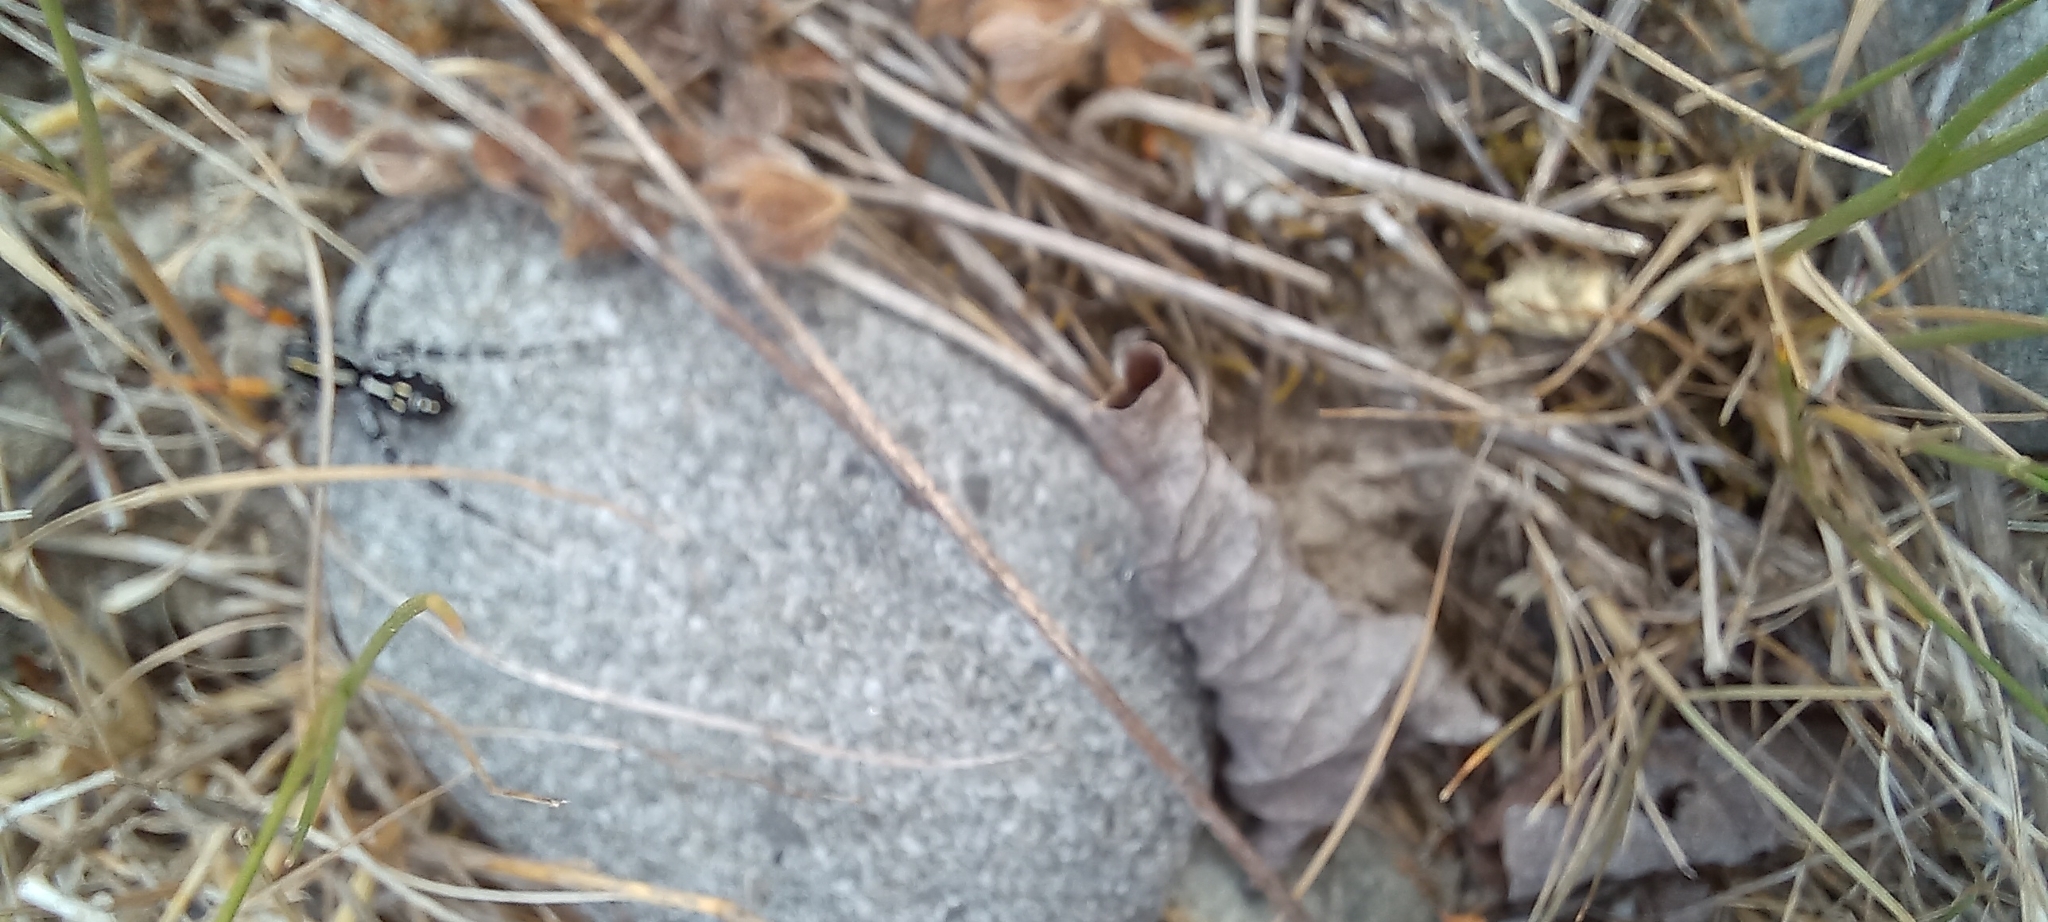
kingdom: Animalia
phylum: Arthropoda
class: Arachnida
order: Araneae
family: Corinnidae
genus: Nyssus
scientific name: Nyssus coloripes
